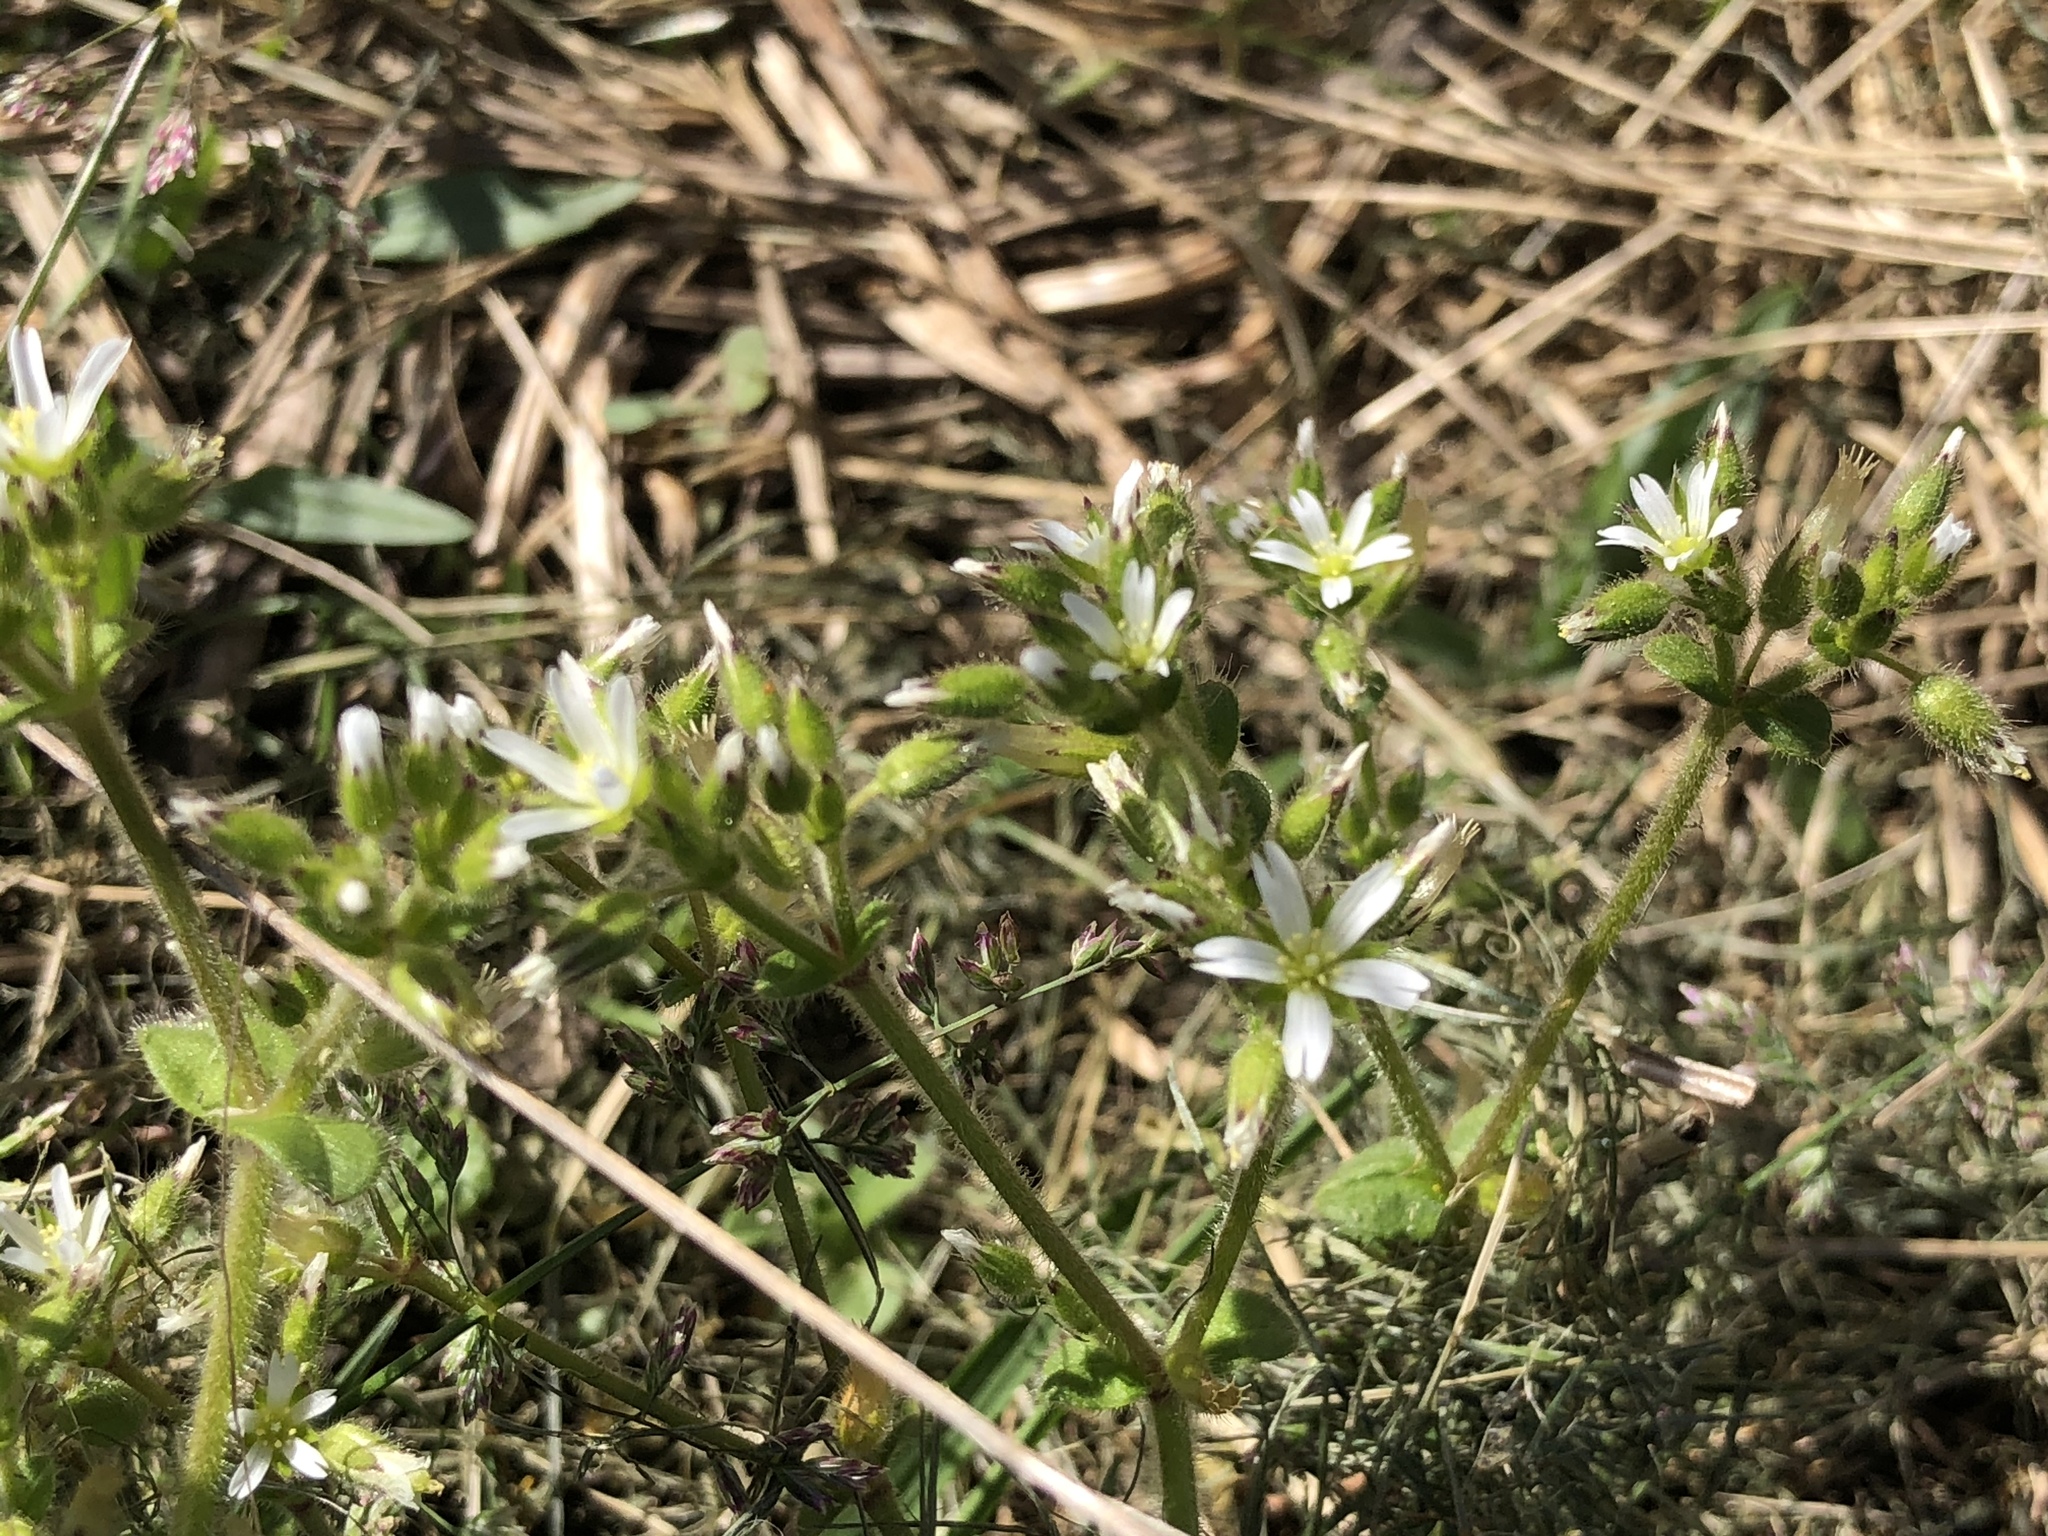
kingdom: Plantae
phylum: Tracheophyta
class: Magnoliopsida
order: Caryophyllales
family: Caryophyllaceae
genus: Cerastium
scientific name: Cerastium arvense
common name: Field mouse-ear
